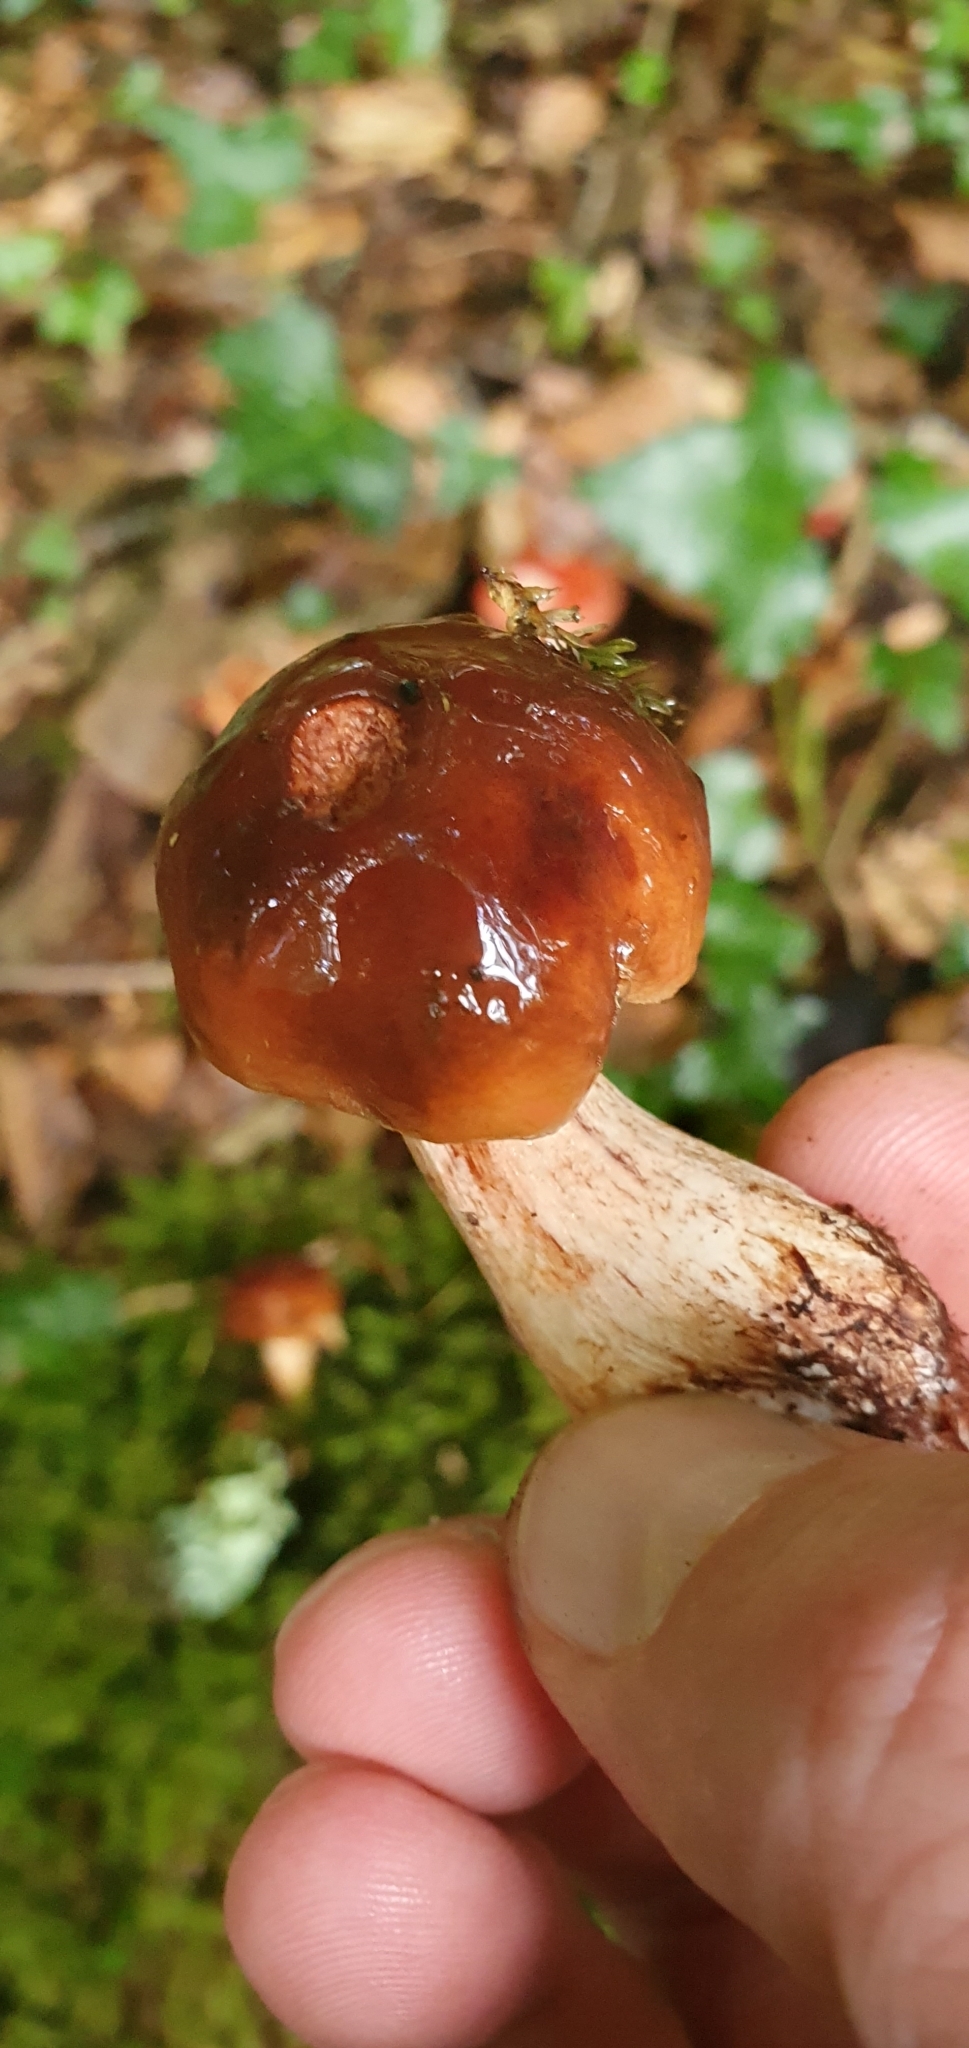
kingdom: Fungi
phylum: Basidiomycota
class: Agaricomycetes
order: Agaricales
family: Tricholomataceae
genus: Tricholoma
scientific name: Tricholoma ustale
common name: Burnt knight
